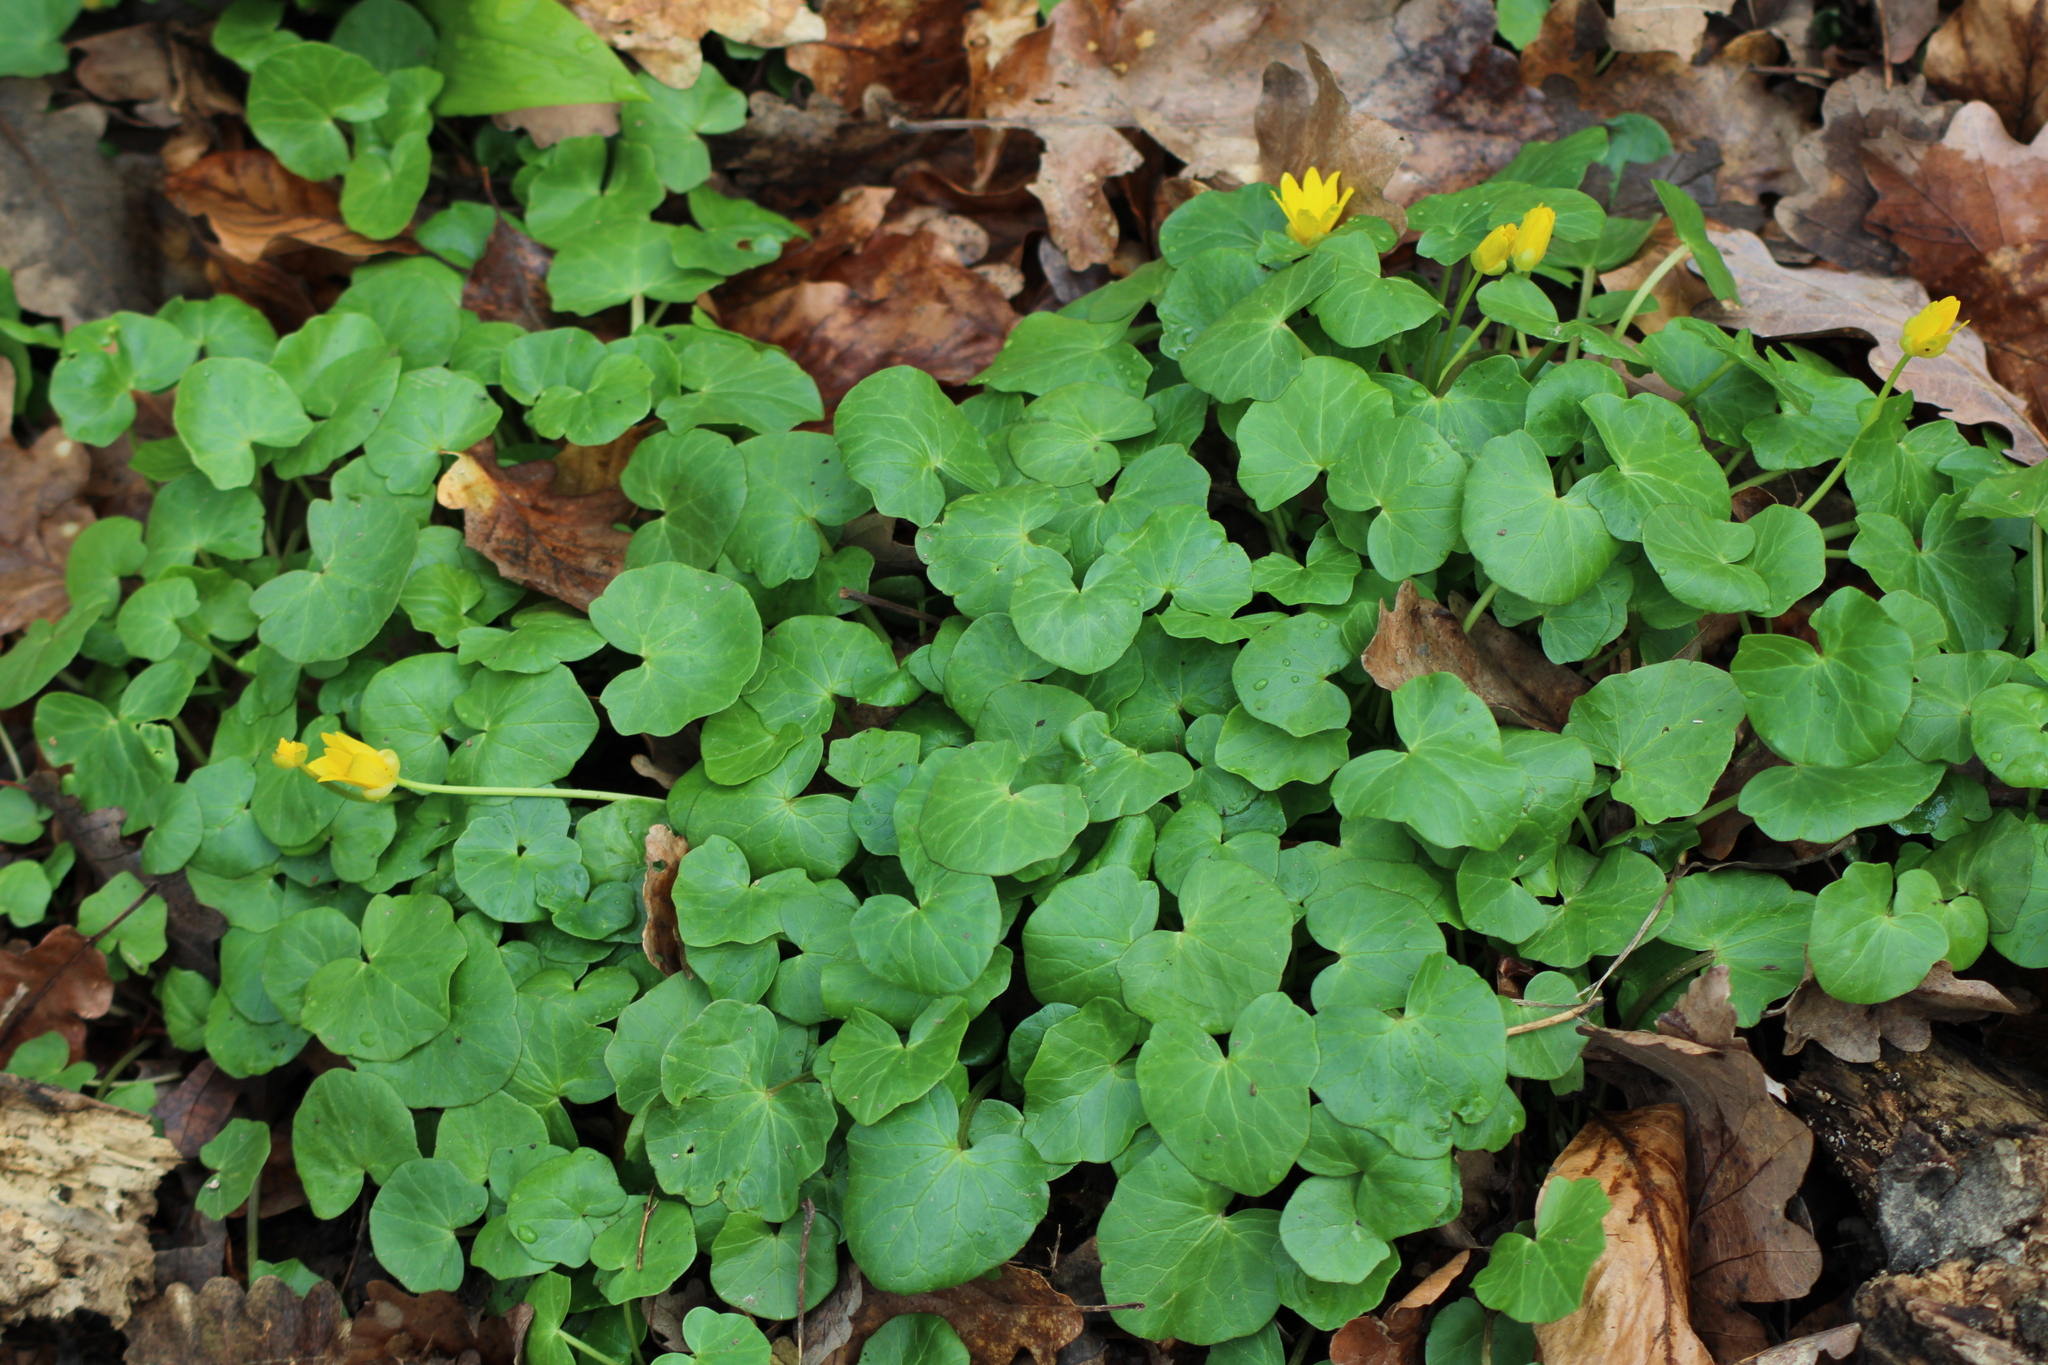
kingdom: Plantae
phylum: Tracheophyta
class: Magnoliopsida
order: Ranunculales
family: Ranunculaceae
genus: Ficaria
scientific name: Ficaria verna
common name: Lesser celandine
